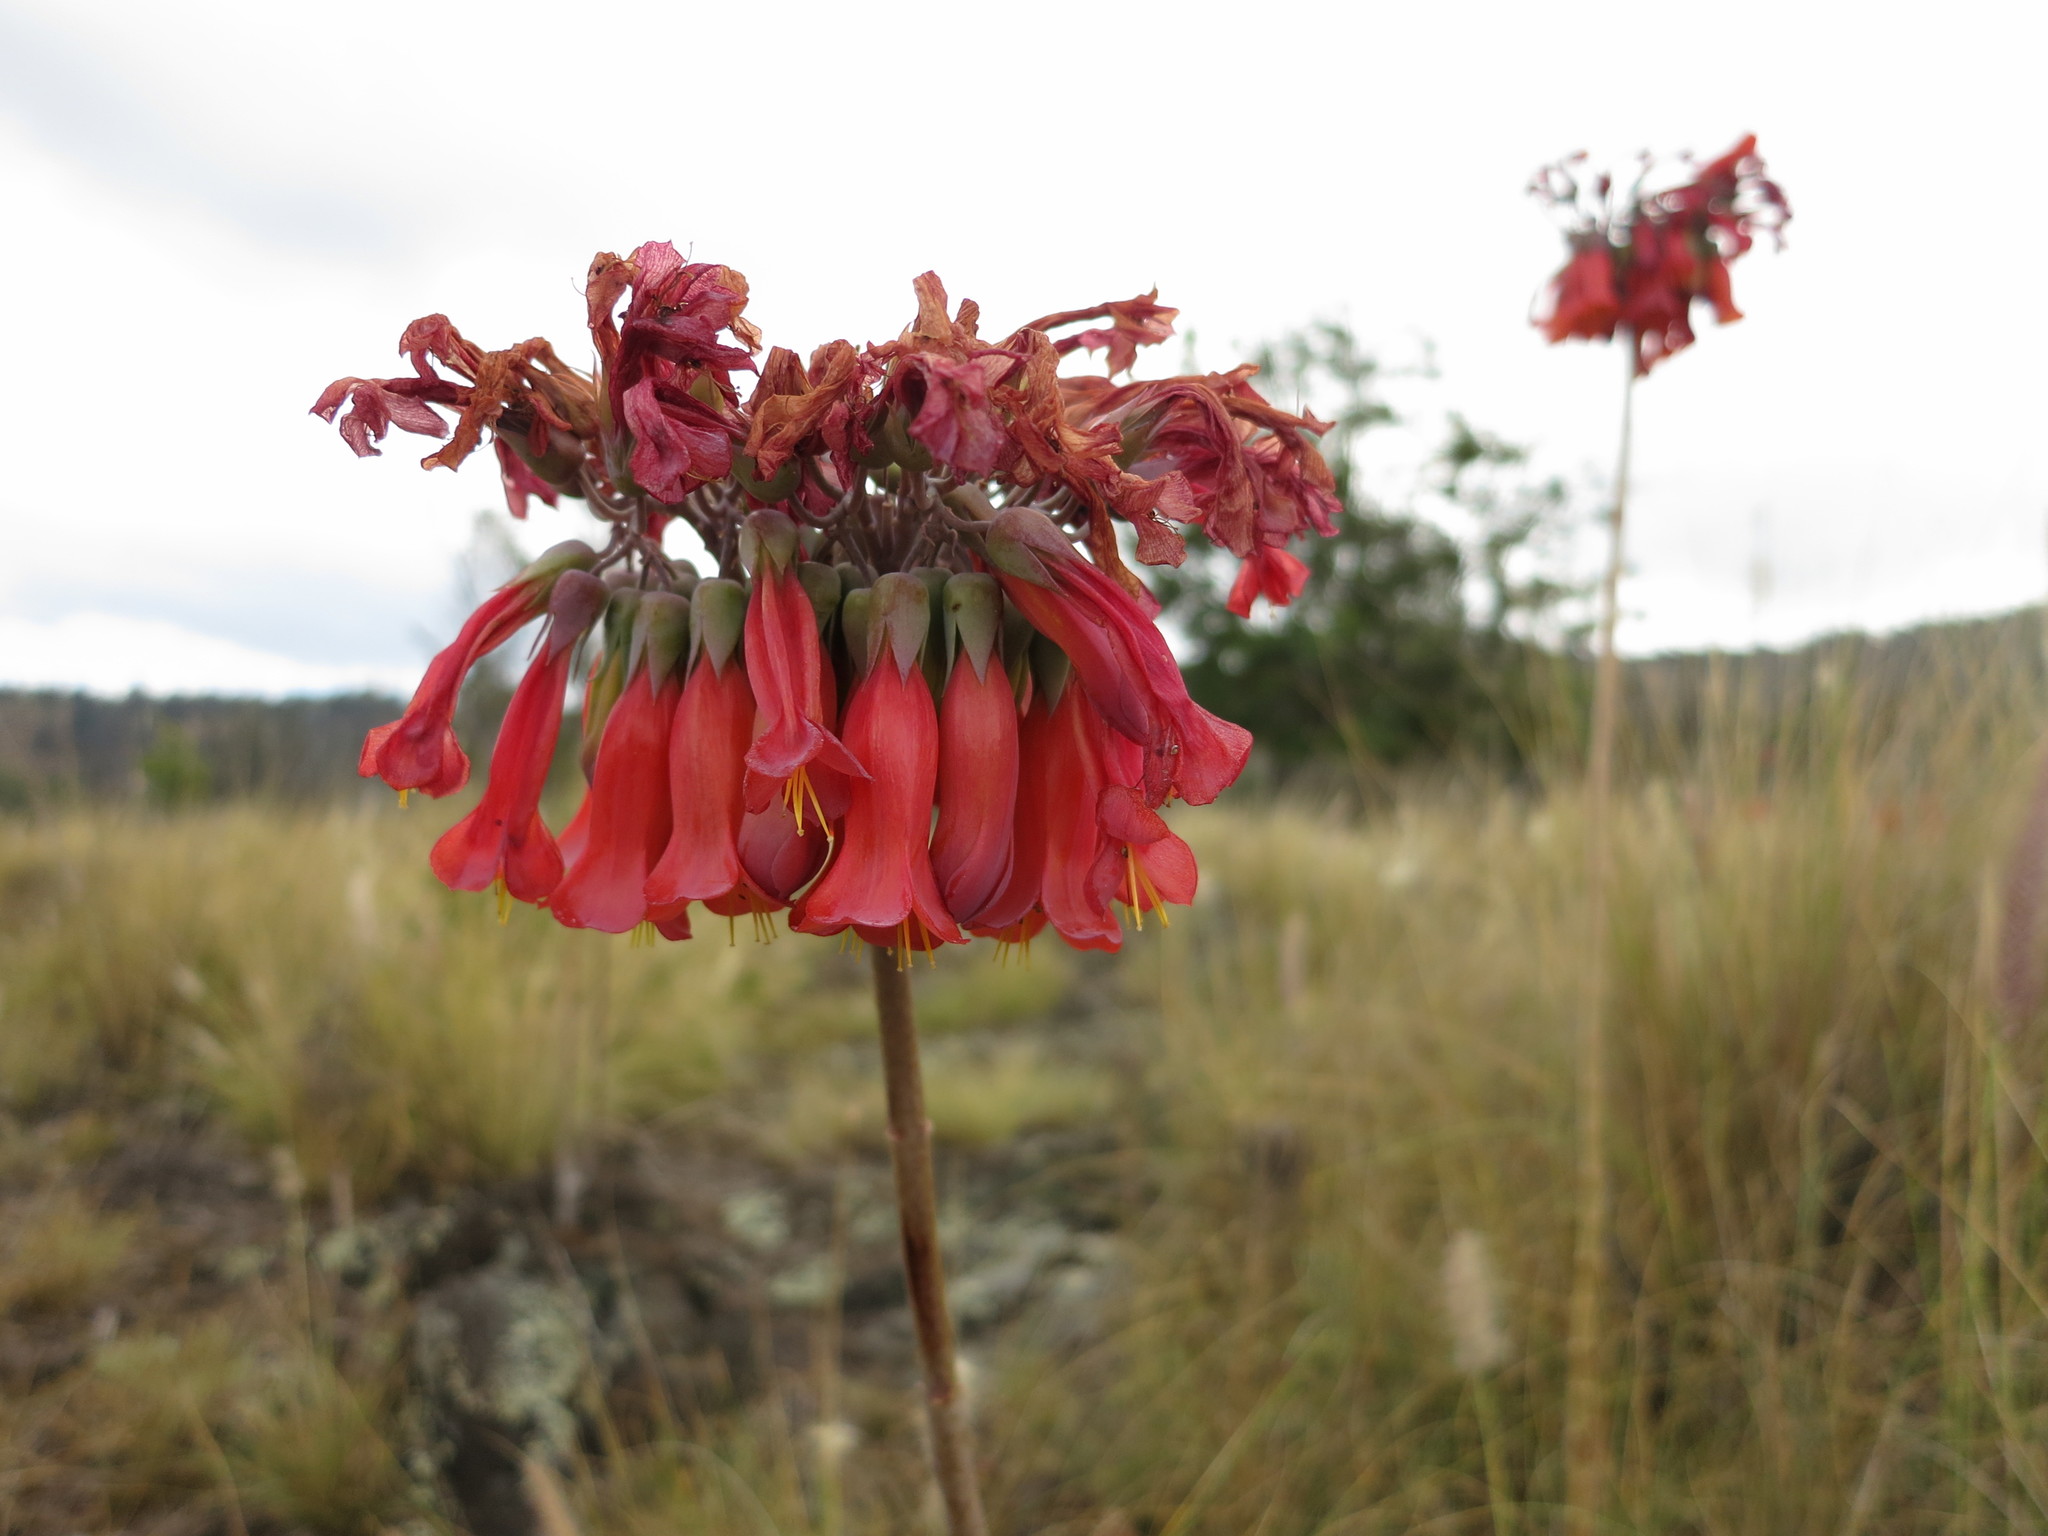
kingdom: Chromista
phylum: Ciliophora
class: Gymnostomatea
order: Spathidiida
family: Spathidiidae
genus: Bryophyllum
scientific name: Bryophyllum
